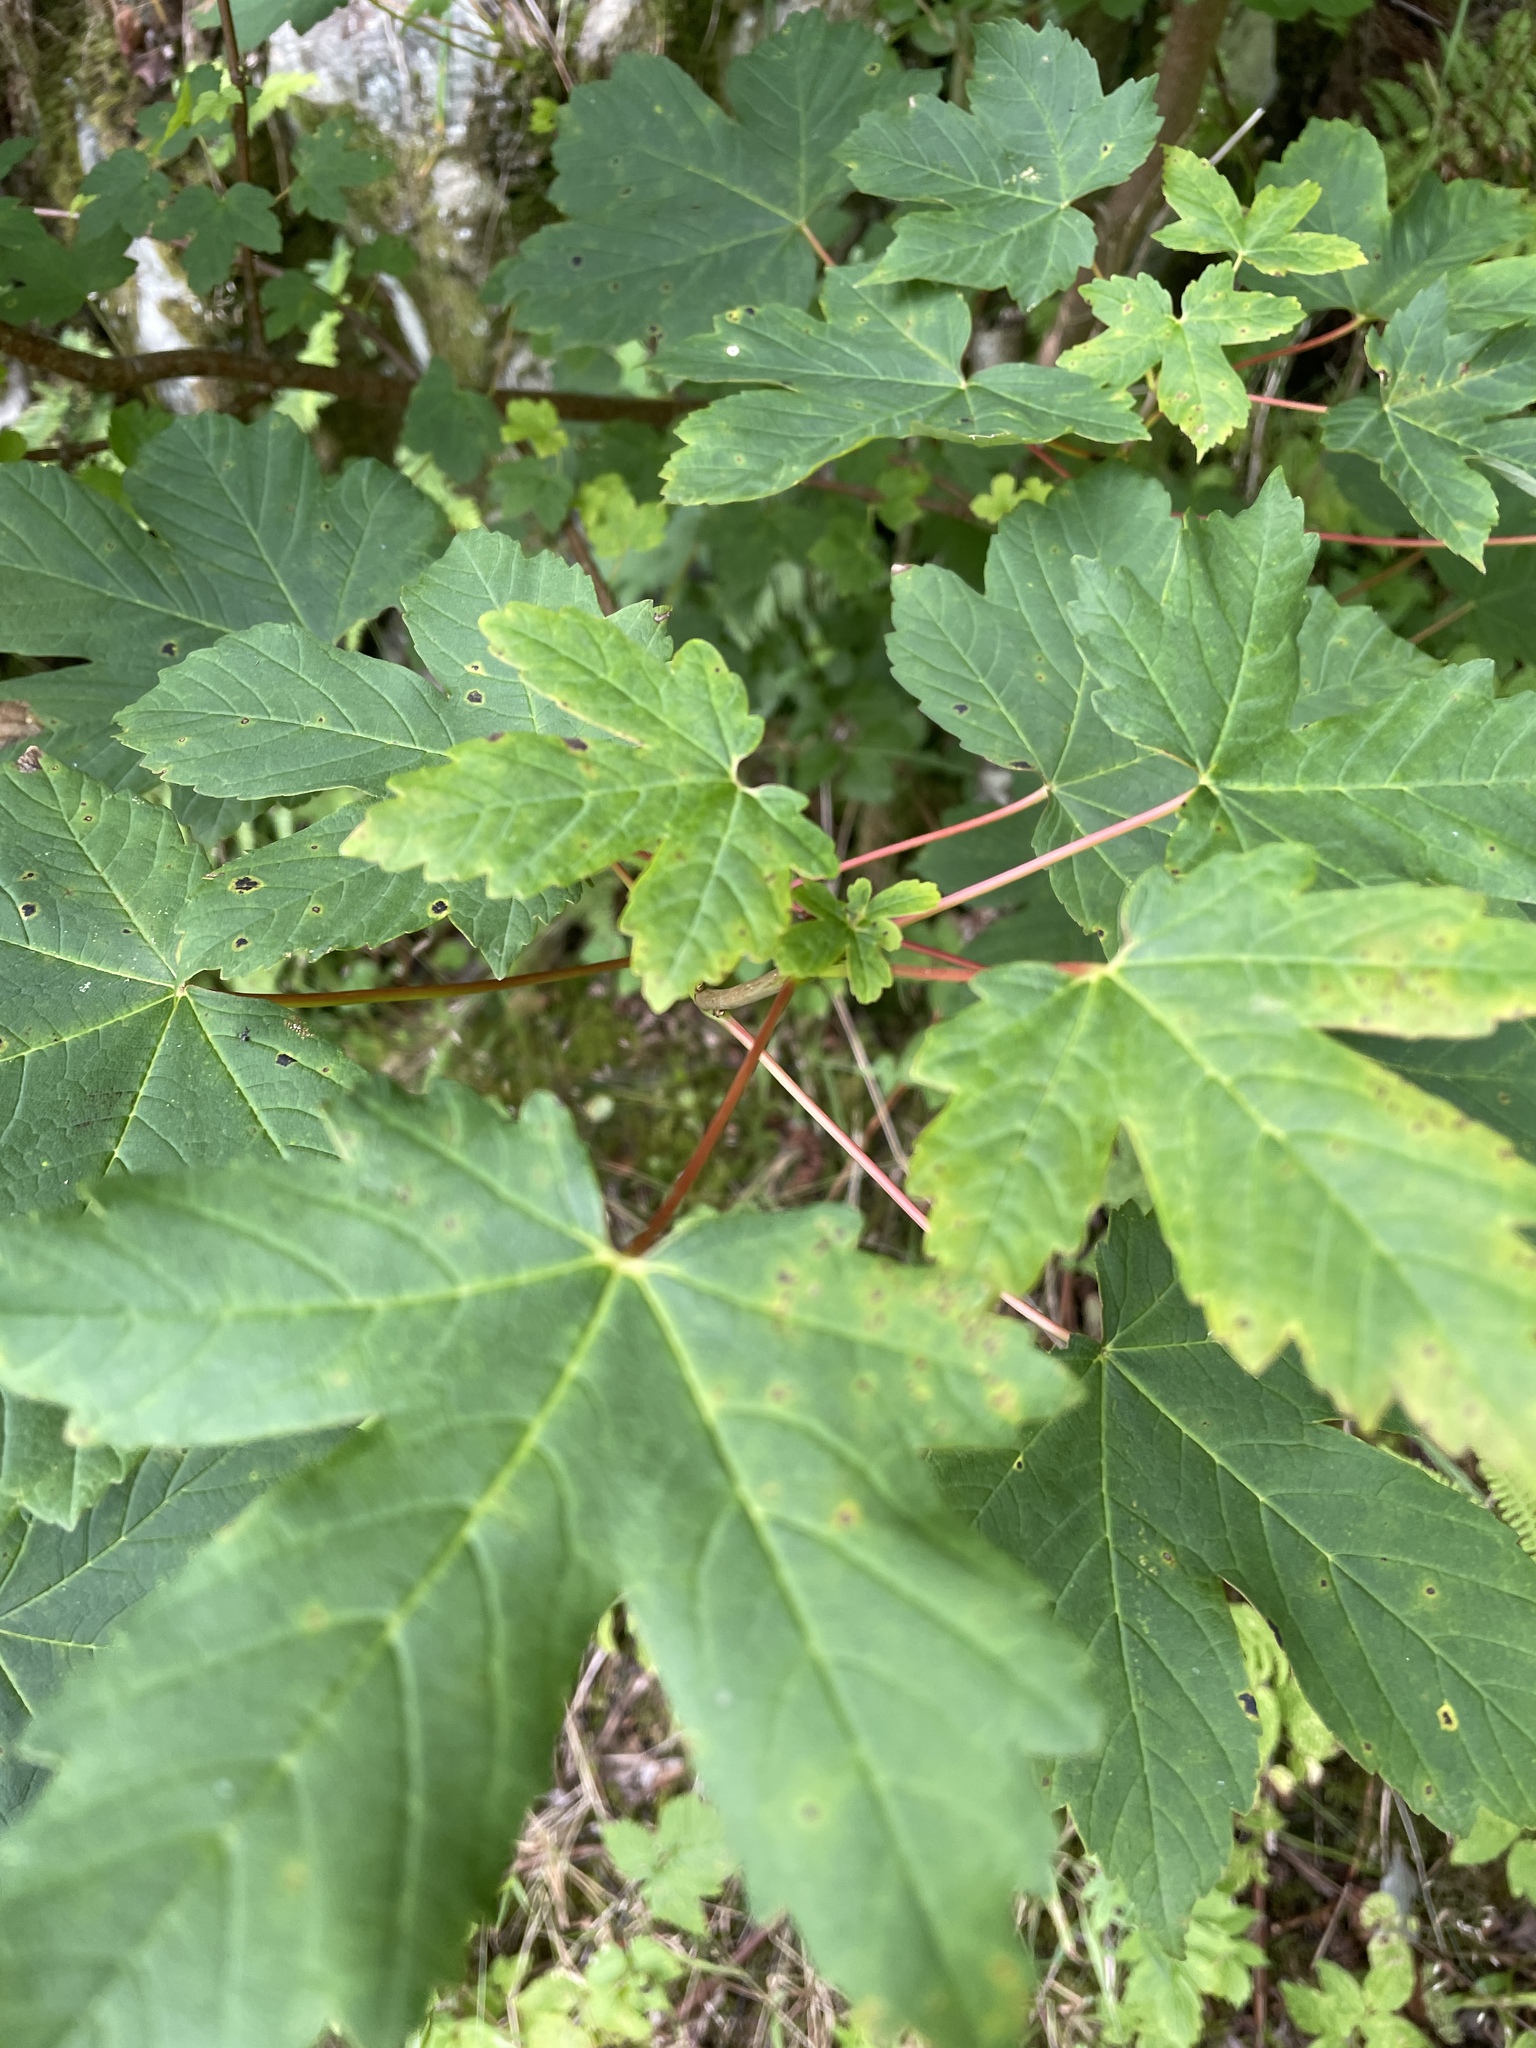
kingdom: Plantae
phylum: Tracheophyta
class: Magnoliopsida
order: Sapindales
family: Sapindaceae
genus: Acer
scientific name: Acer pseudoplatanus
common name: Sycamore
